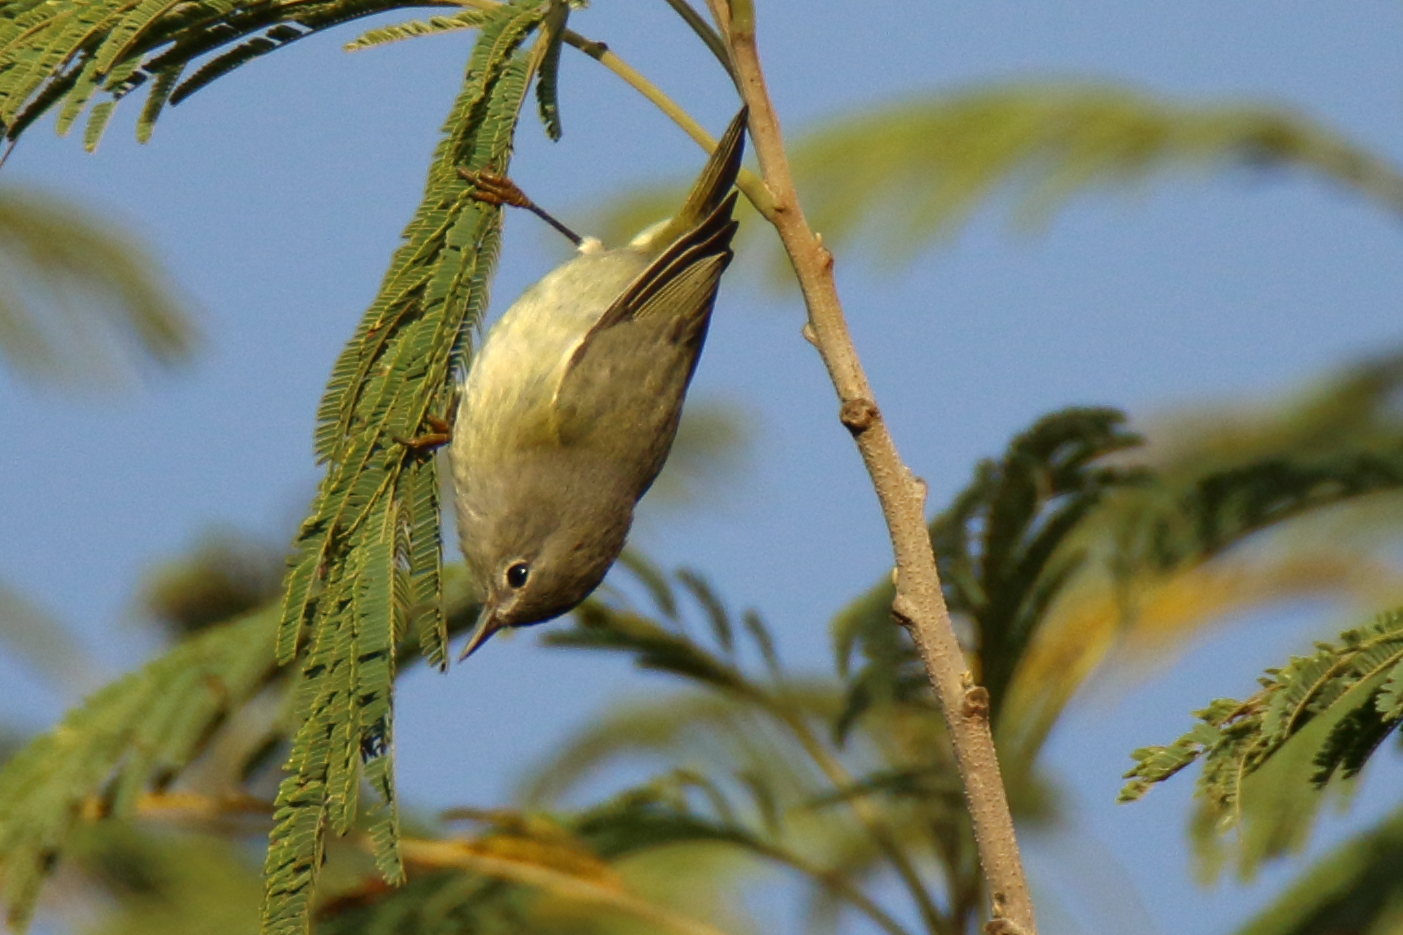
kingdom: Animalia
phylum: Chordata
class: Aves
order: Passeriformes
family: Parulidae
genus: Leiothlypis
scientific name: Leiothlypis celata
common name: Orange-crowned warbler
